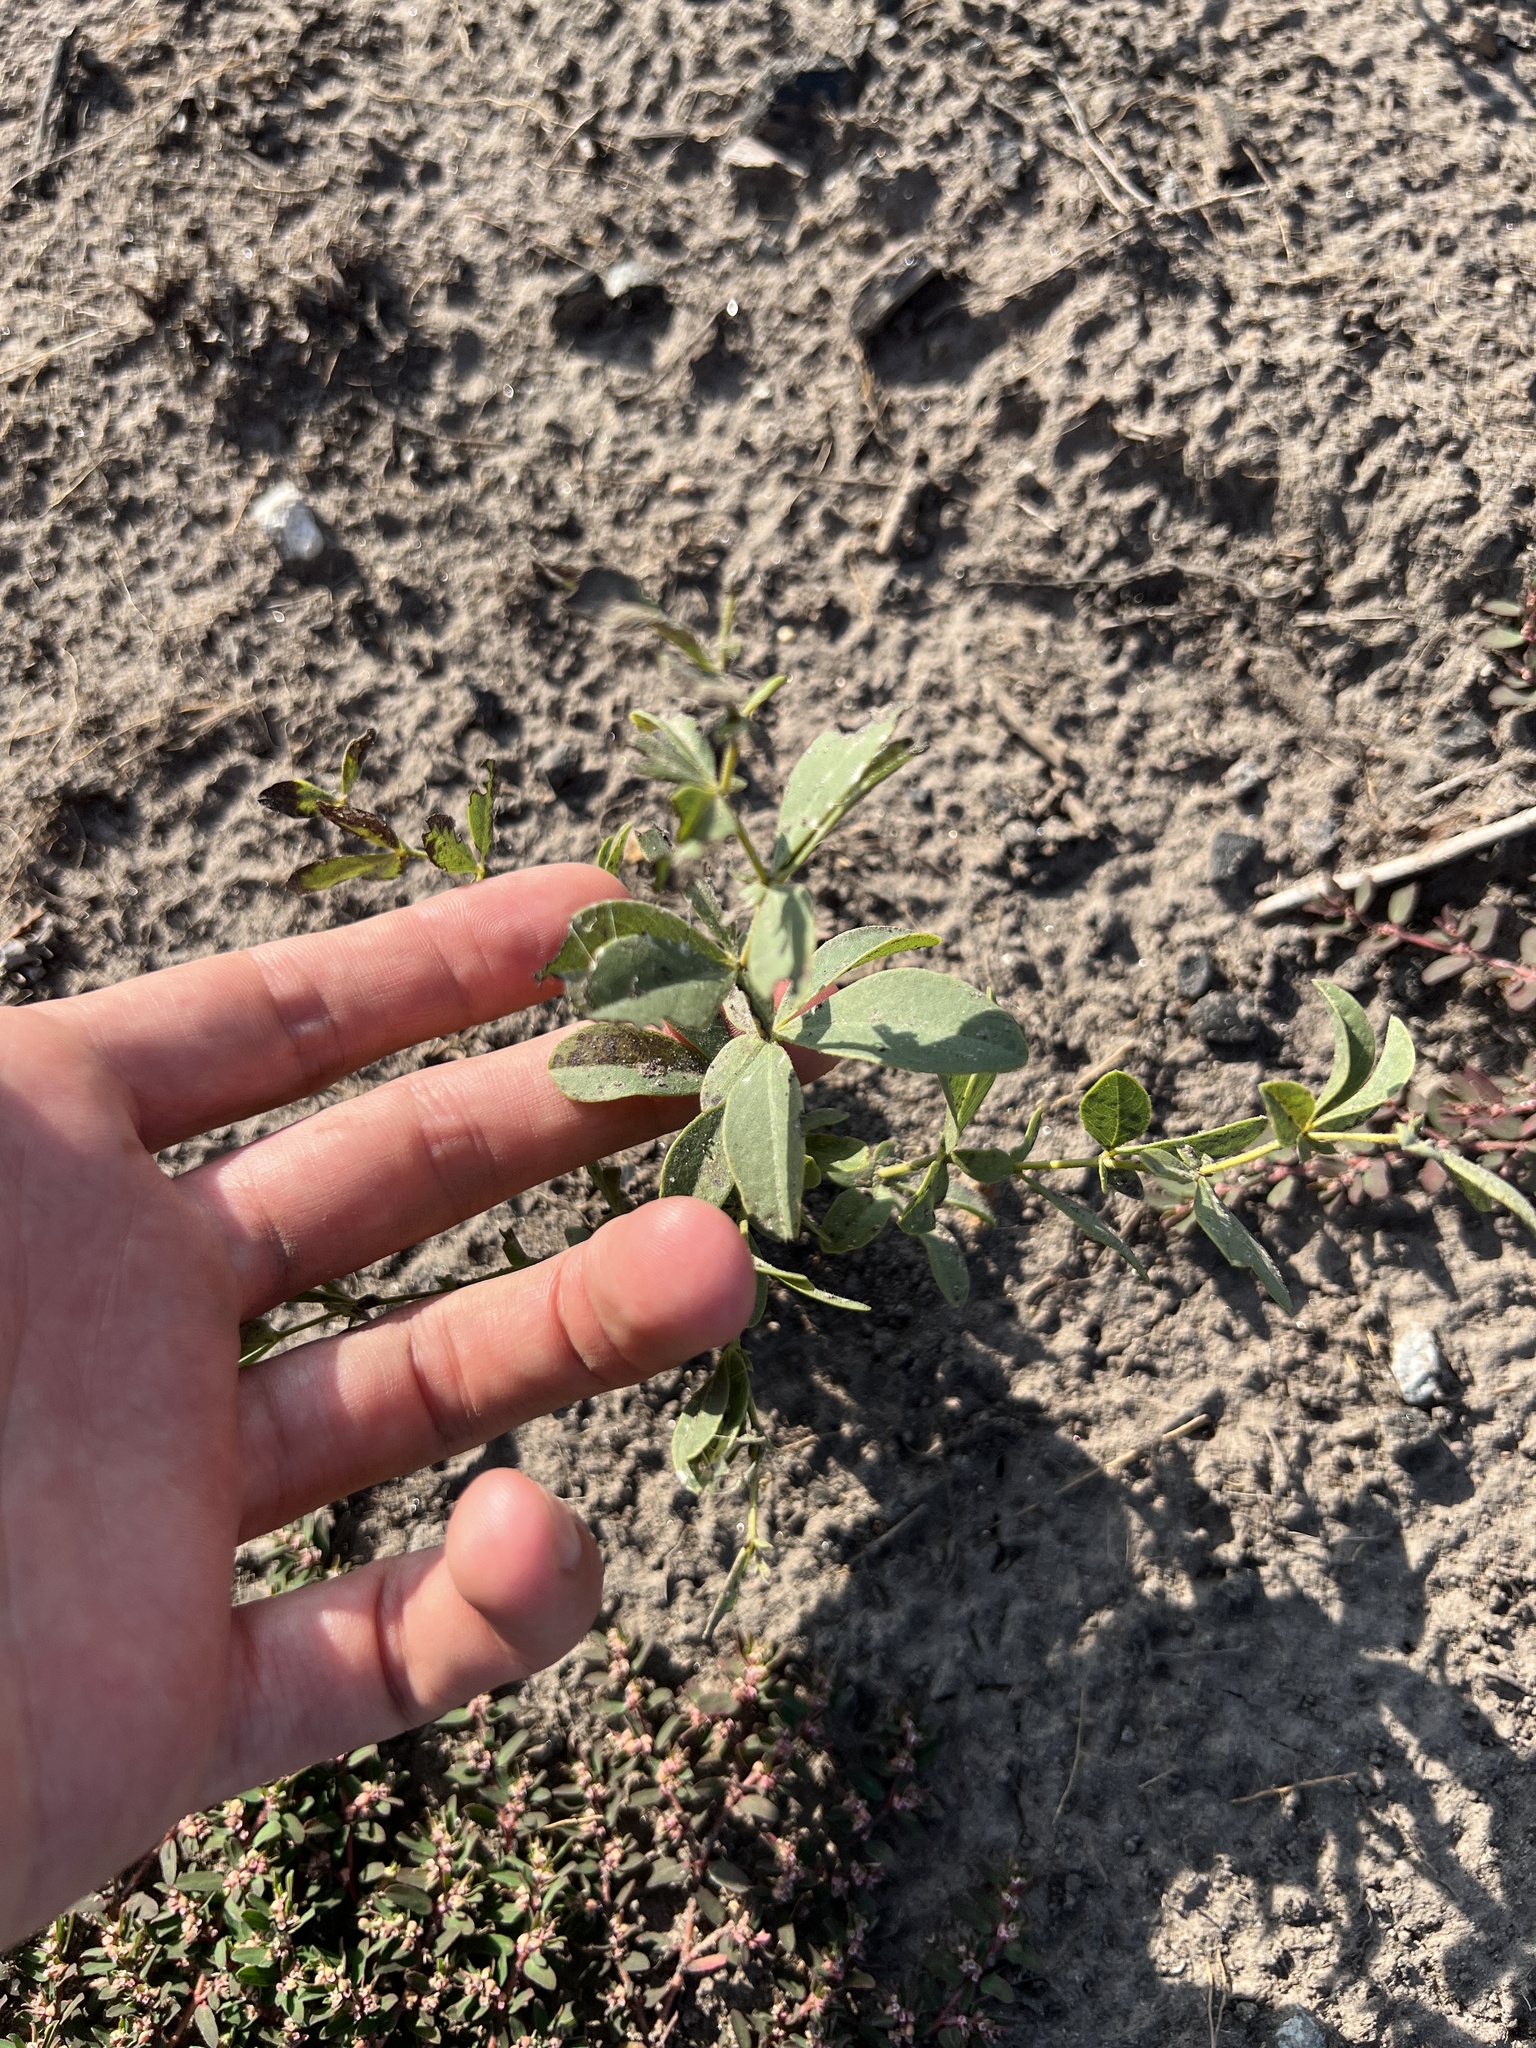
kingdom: Plantae
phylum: Tracheophyta
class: Magnoliopsida
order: Fabales
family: Fabaceae
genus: Baptisia
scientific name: Baptisia bracteata
